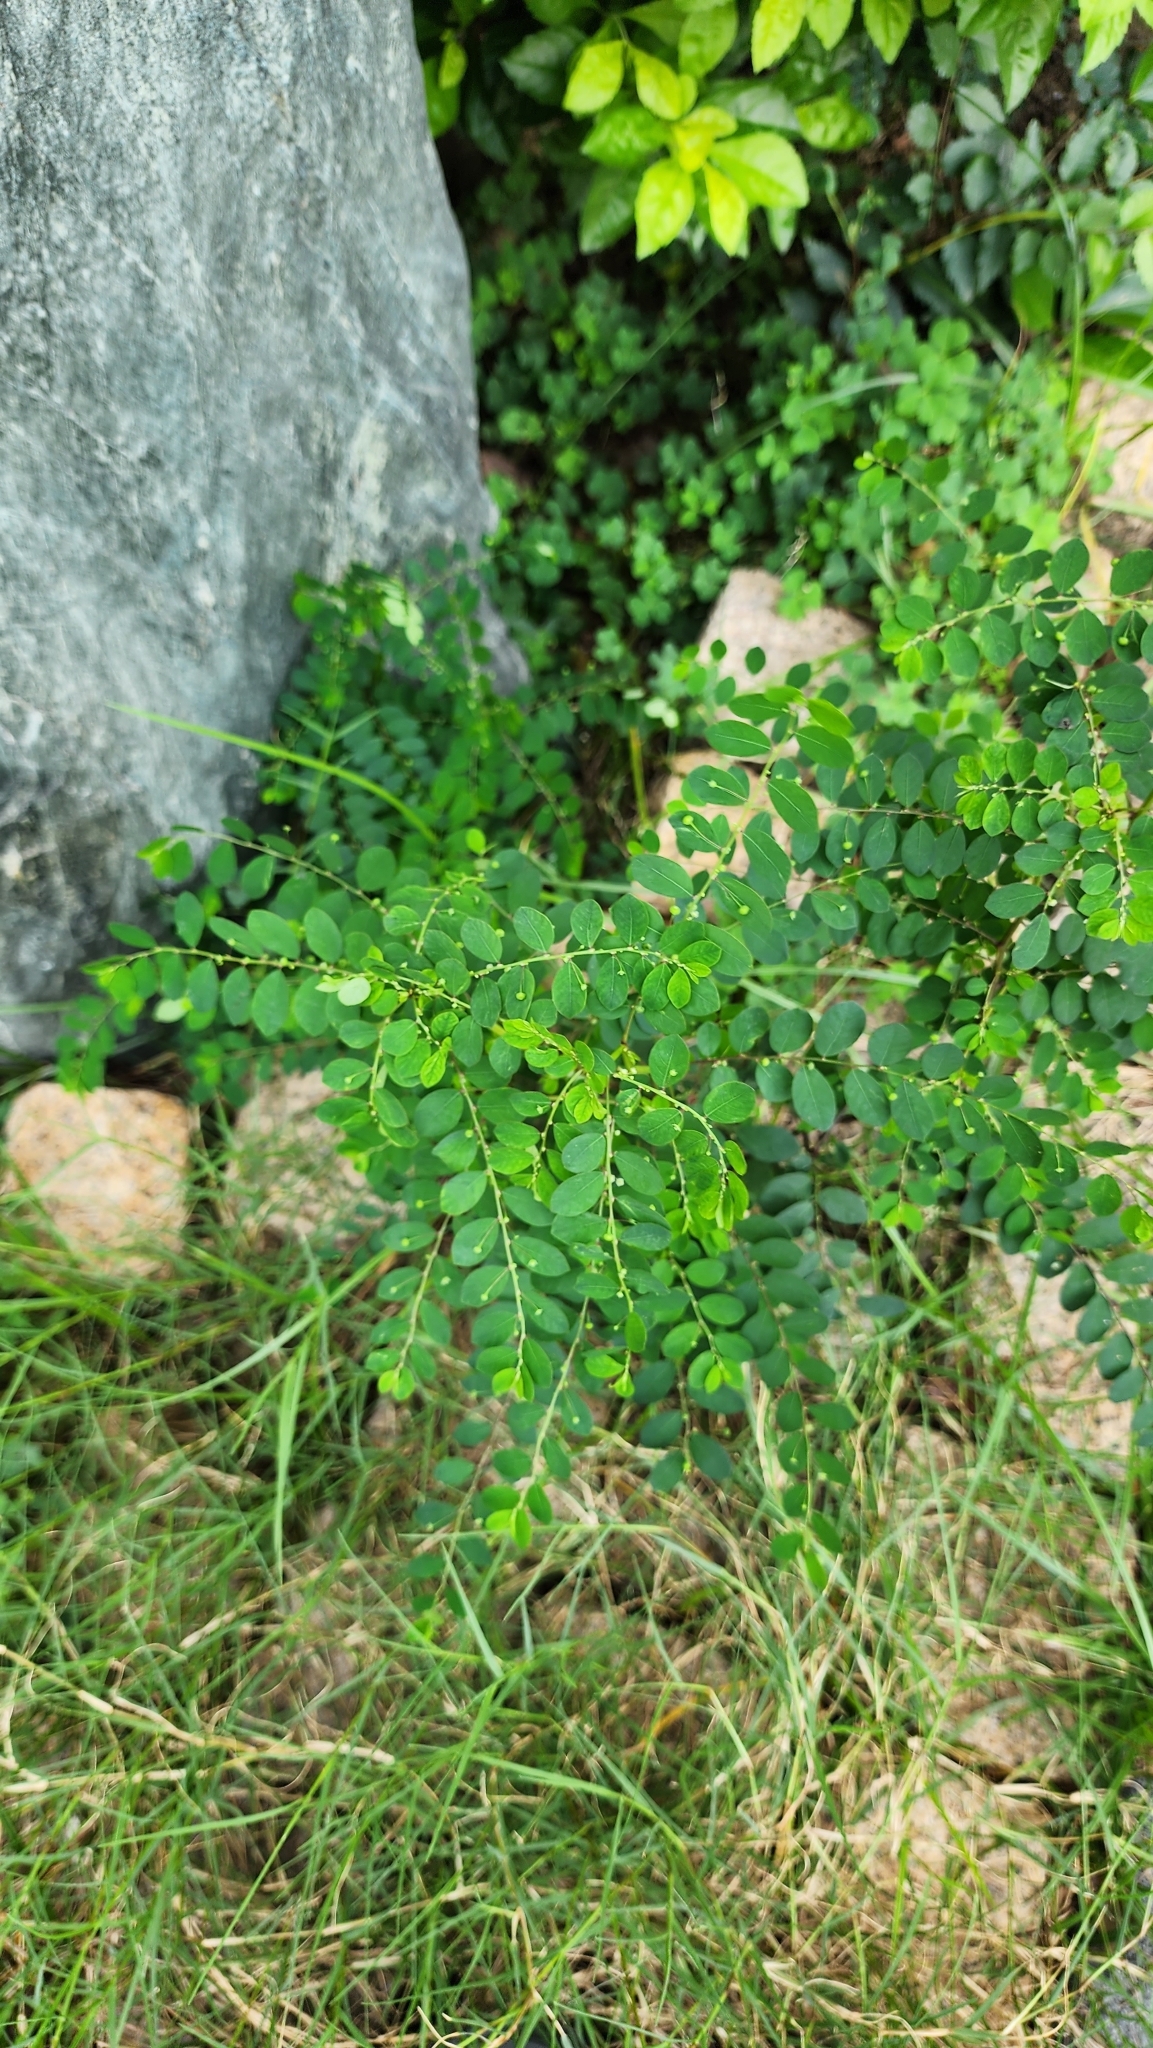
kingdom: Plantae
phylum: Tracheophyta
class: Magnoliopsida
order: Malpighiales
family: Phyllanthaceae
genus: Phyllanthus
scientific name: Phyllanthus tenellus
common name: Mascarene island leaf-flower
